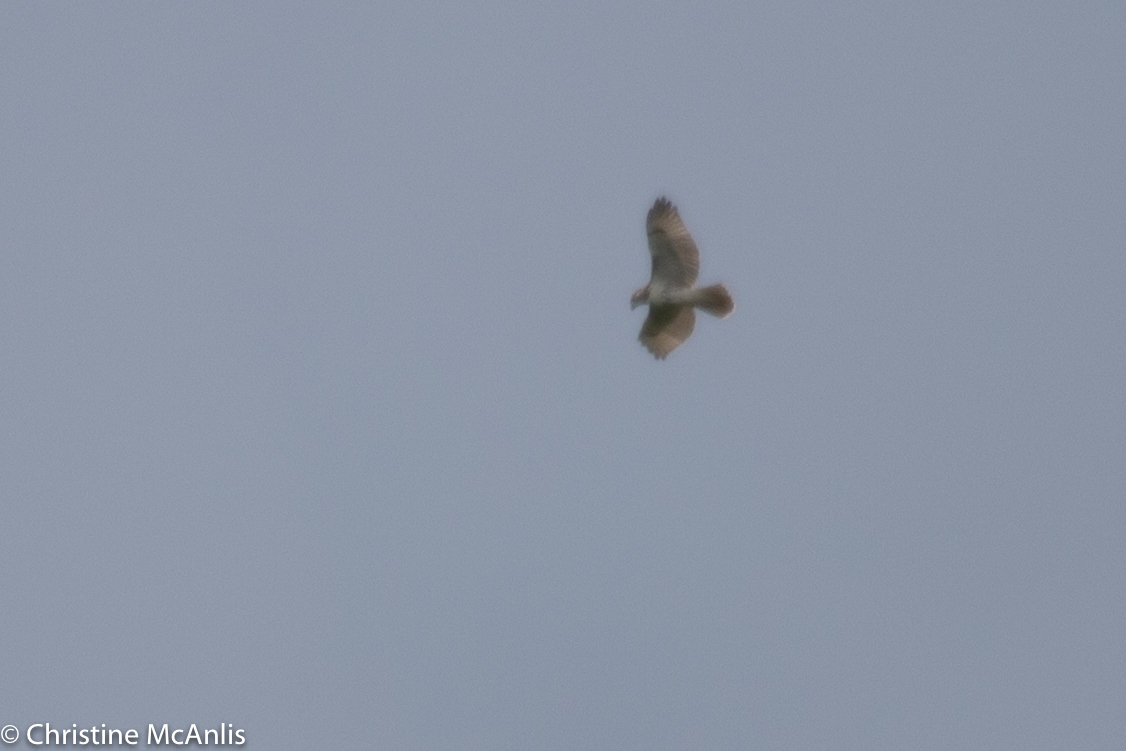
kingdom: Animalia
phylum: Chordata
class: Aves
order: Accipitriformes
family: Accipitridae
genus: Buteo
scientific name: Buteo jamaicensis
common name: Red-tailed hawk
